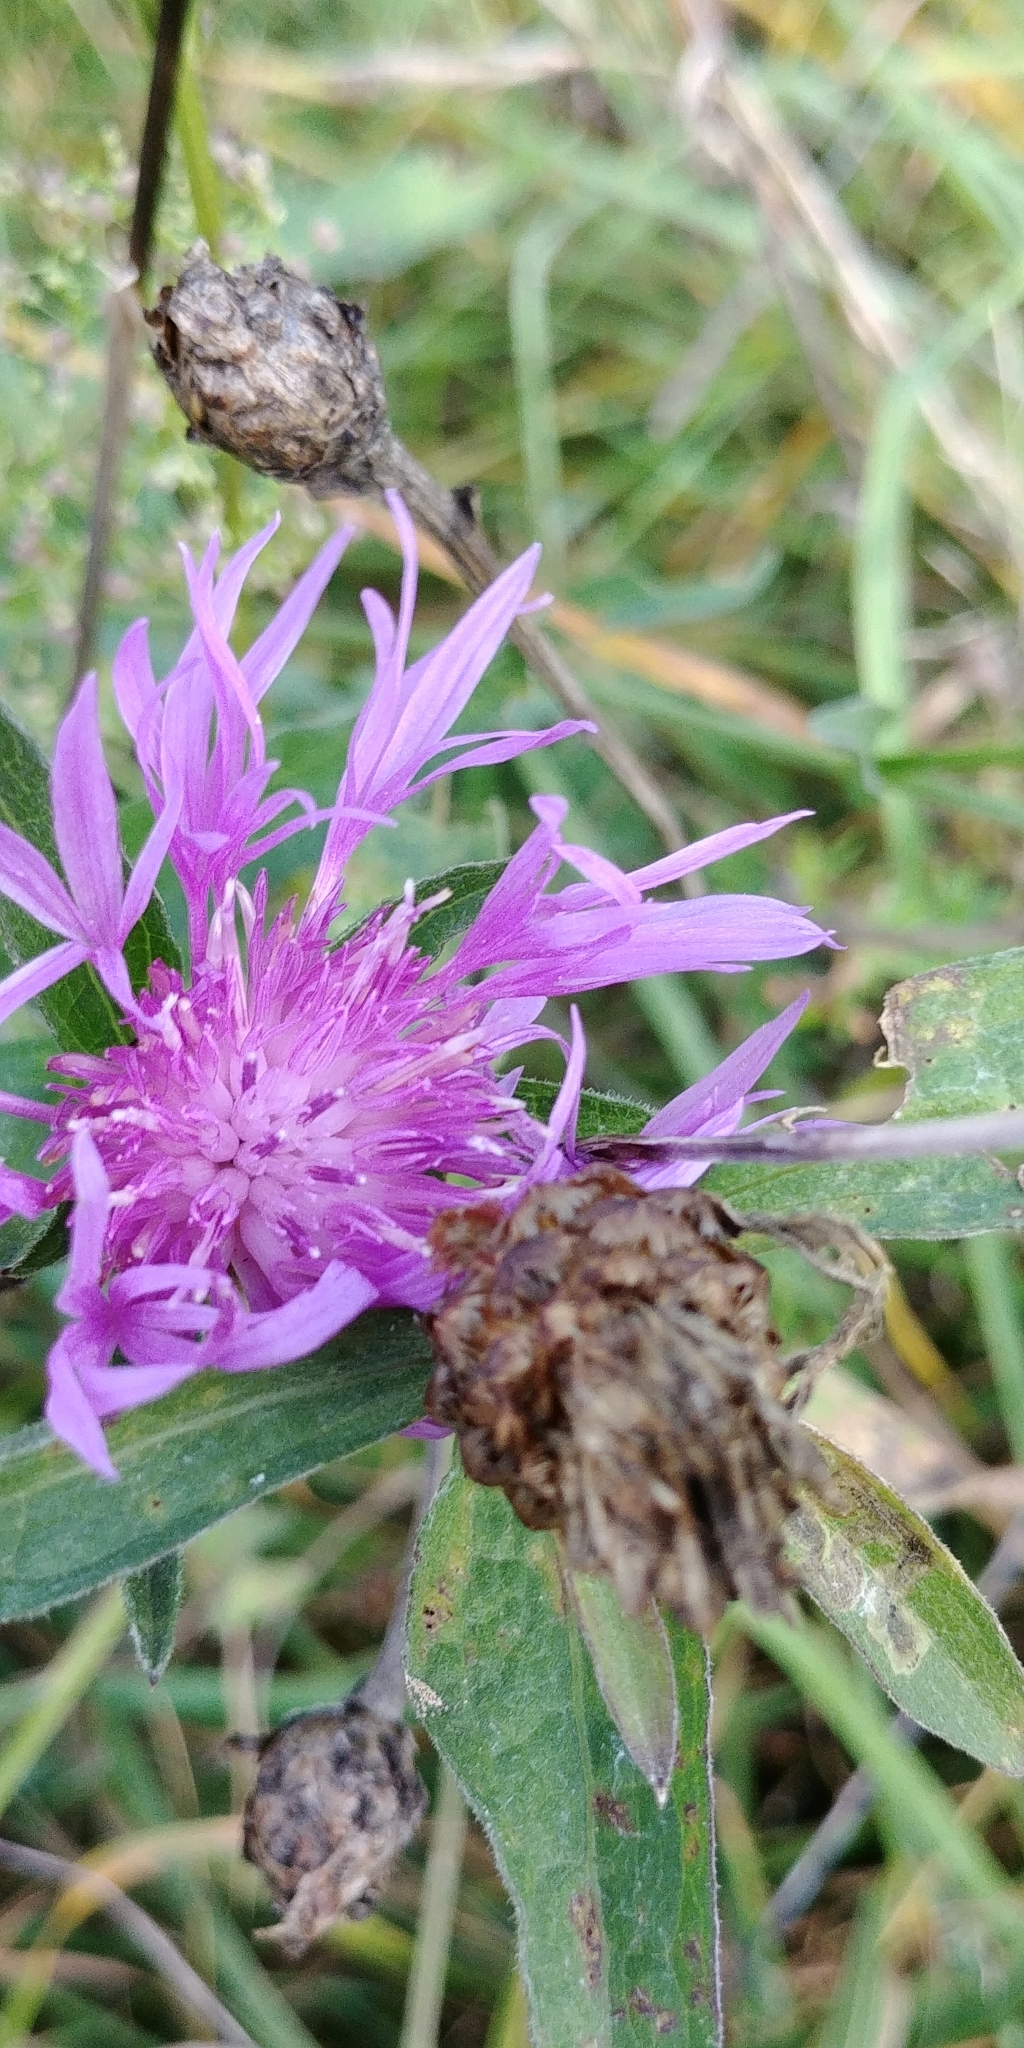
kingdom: Plantae
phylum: Tracheophyta
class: Magnoliopsida
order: Asterales
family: Asteraceae
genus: Centaurea
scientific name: Centaurea jacea
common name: Brown knapweed
